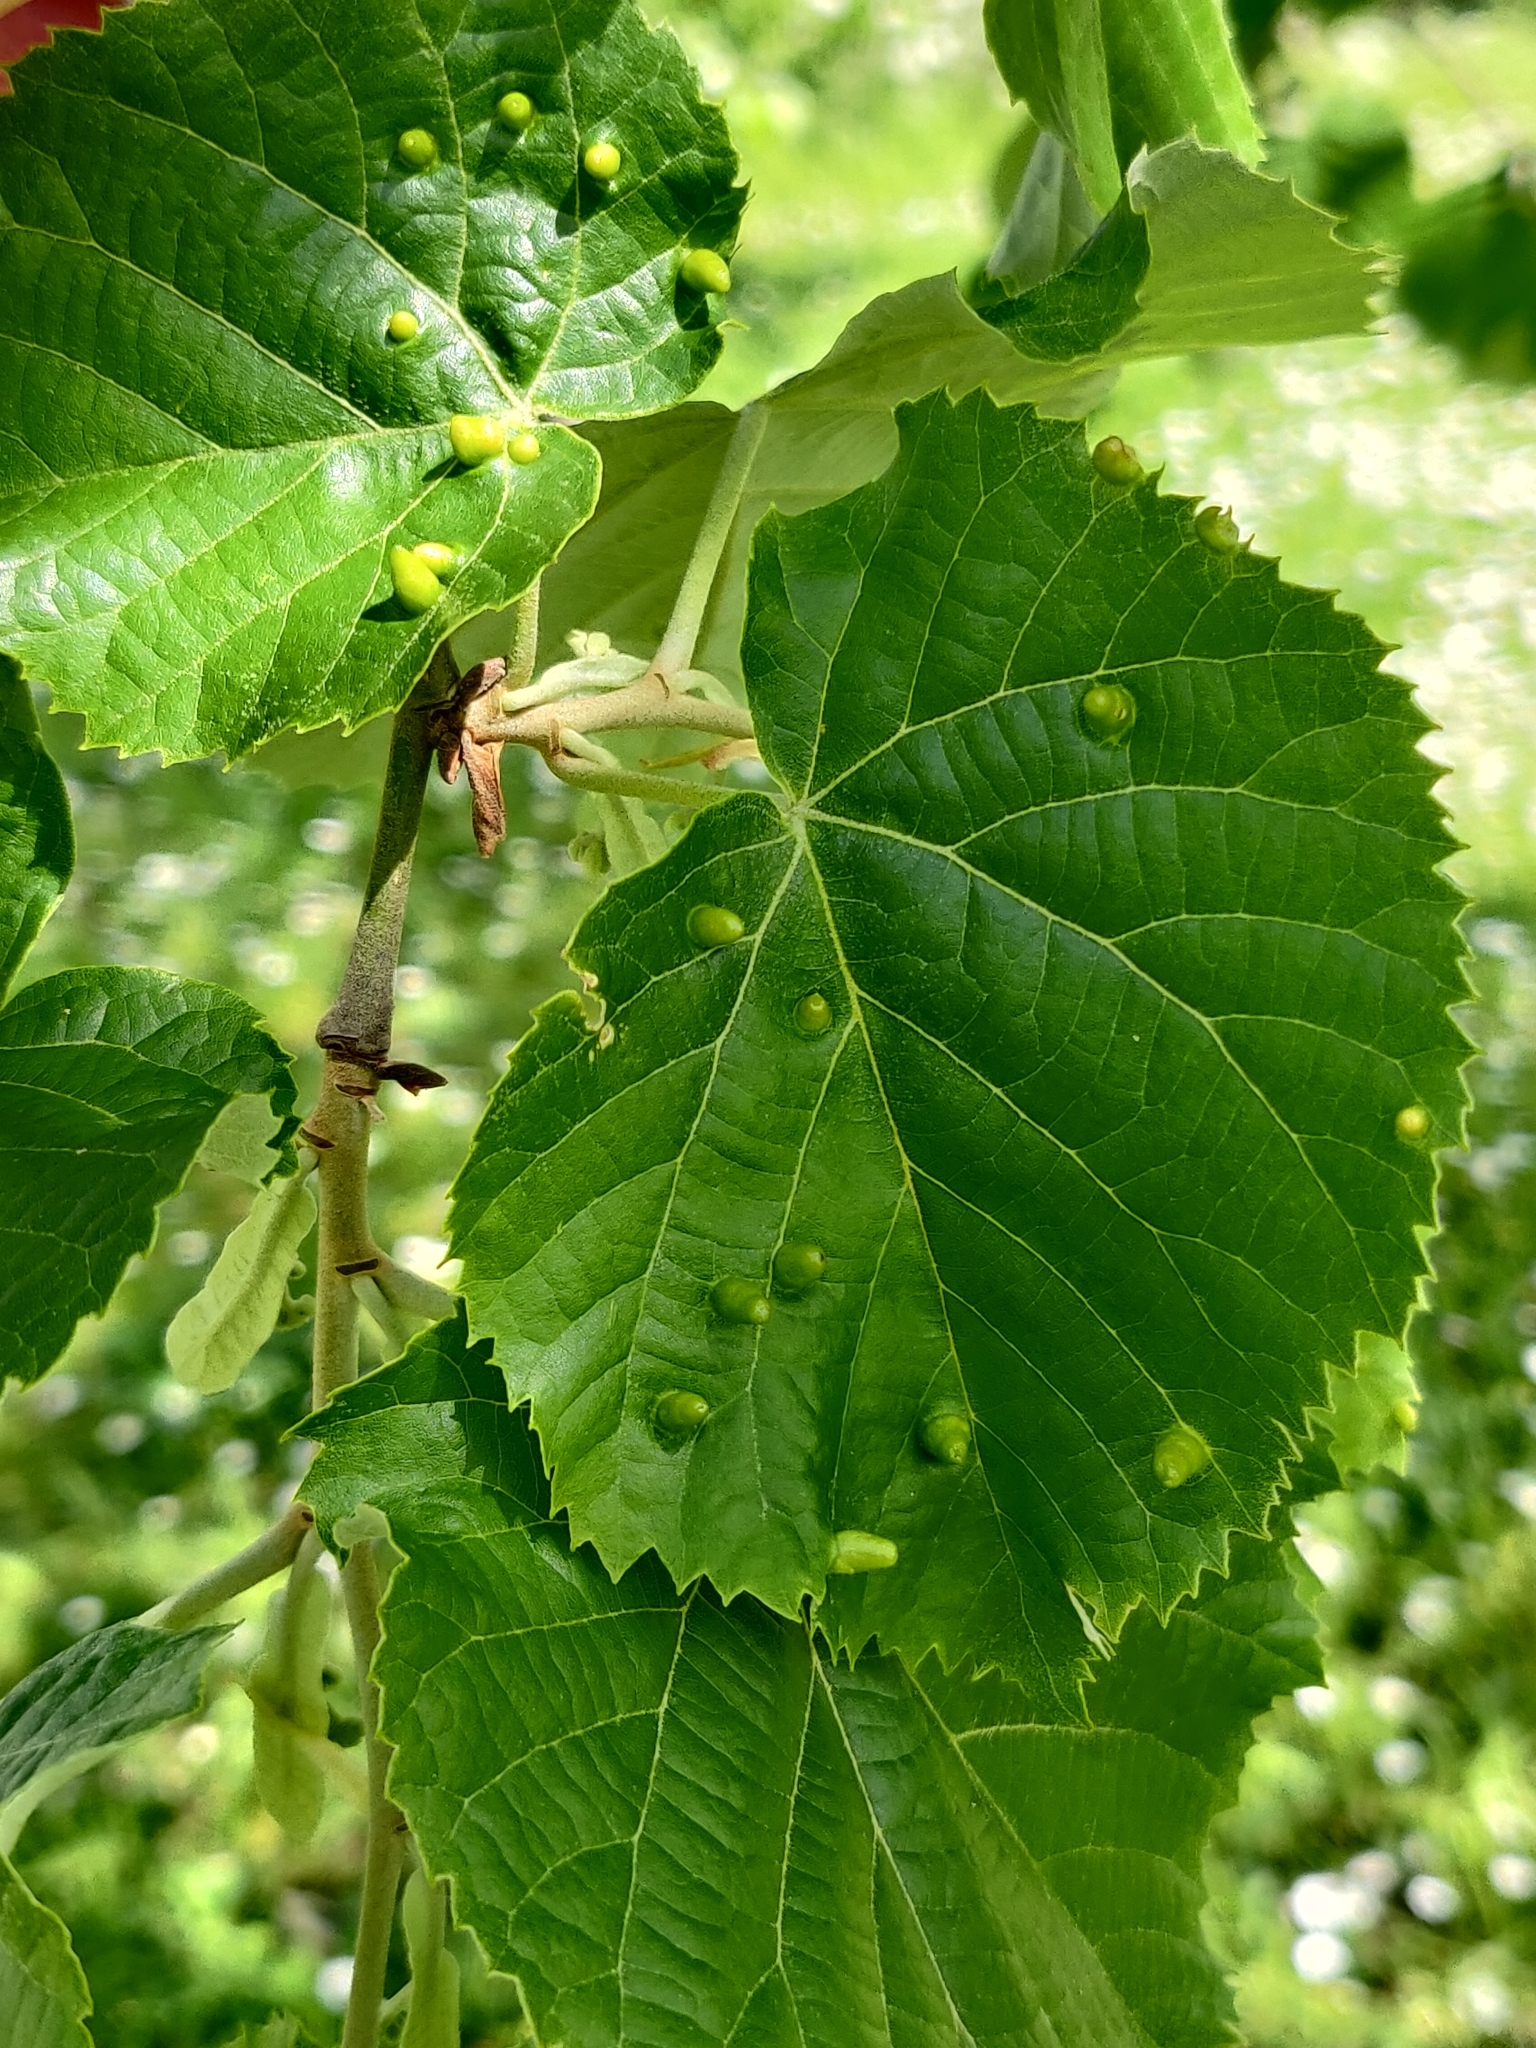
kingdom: Animalia
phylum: Arthropoda
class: Arachnida
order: Trombidiformes
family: Eriophyidae
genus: Eriophyes
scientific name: Eriophyes tiliae
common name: Red nail gall mite
